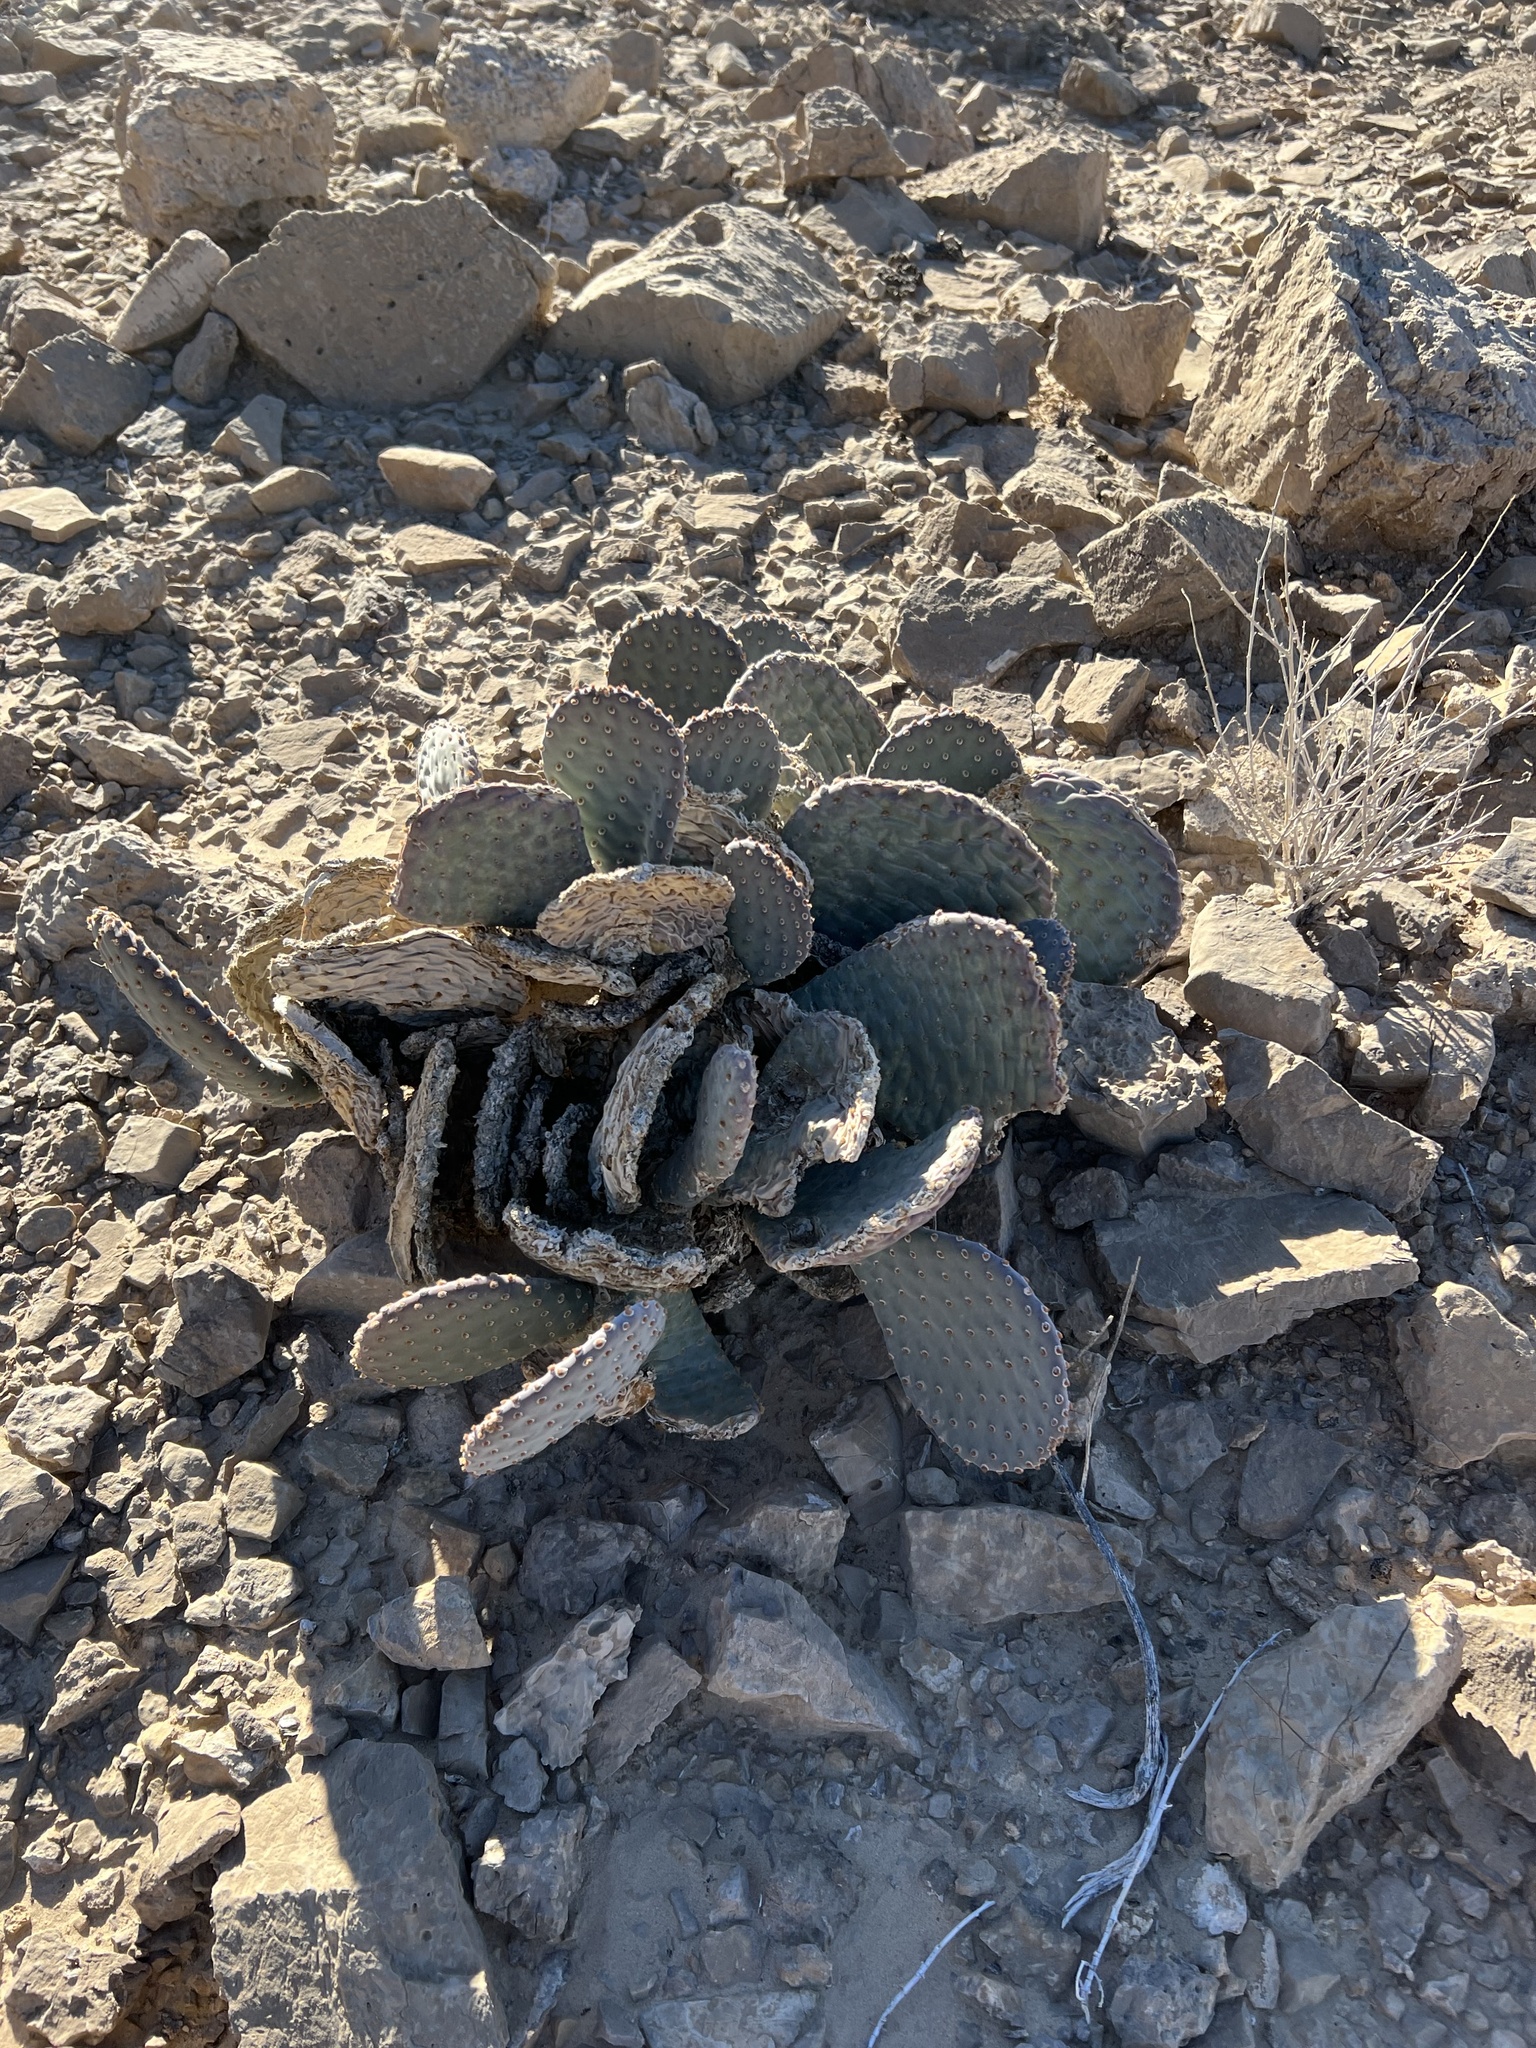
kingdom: Plantae
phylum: Tracheophyta
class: Magnoliopsida
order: Caryophyllales
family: Cactaceae
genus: Opuntia
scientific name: Opuntia basilaris
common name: Beavertail prickly-pear
